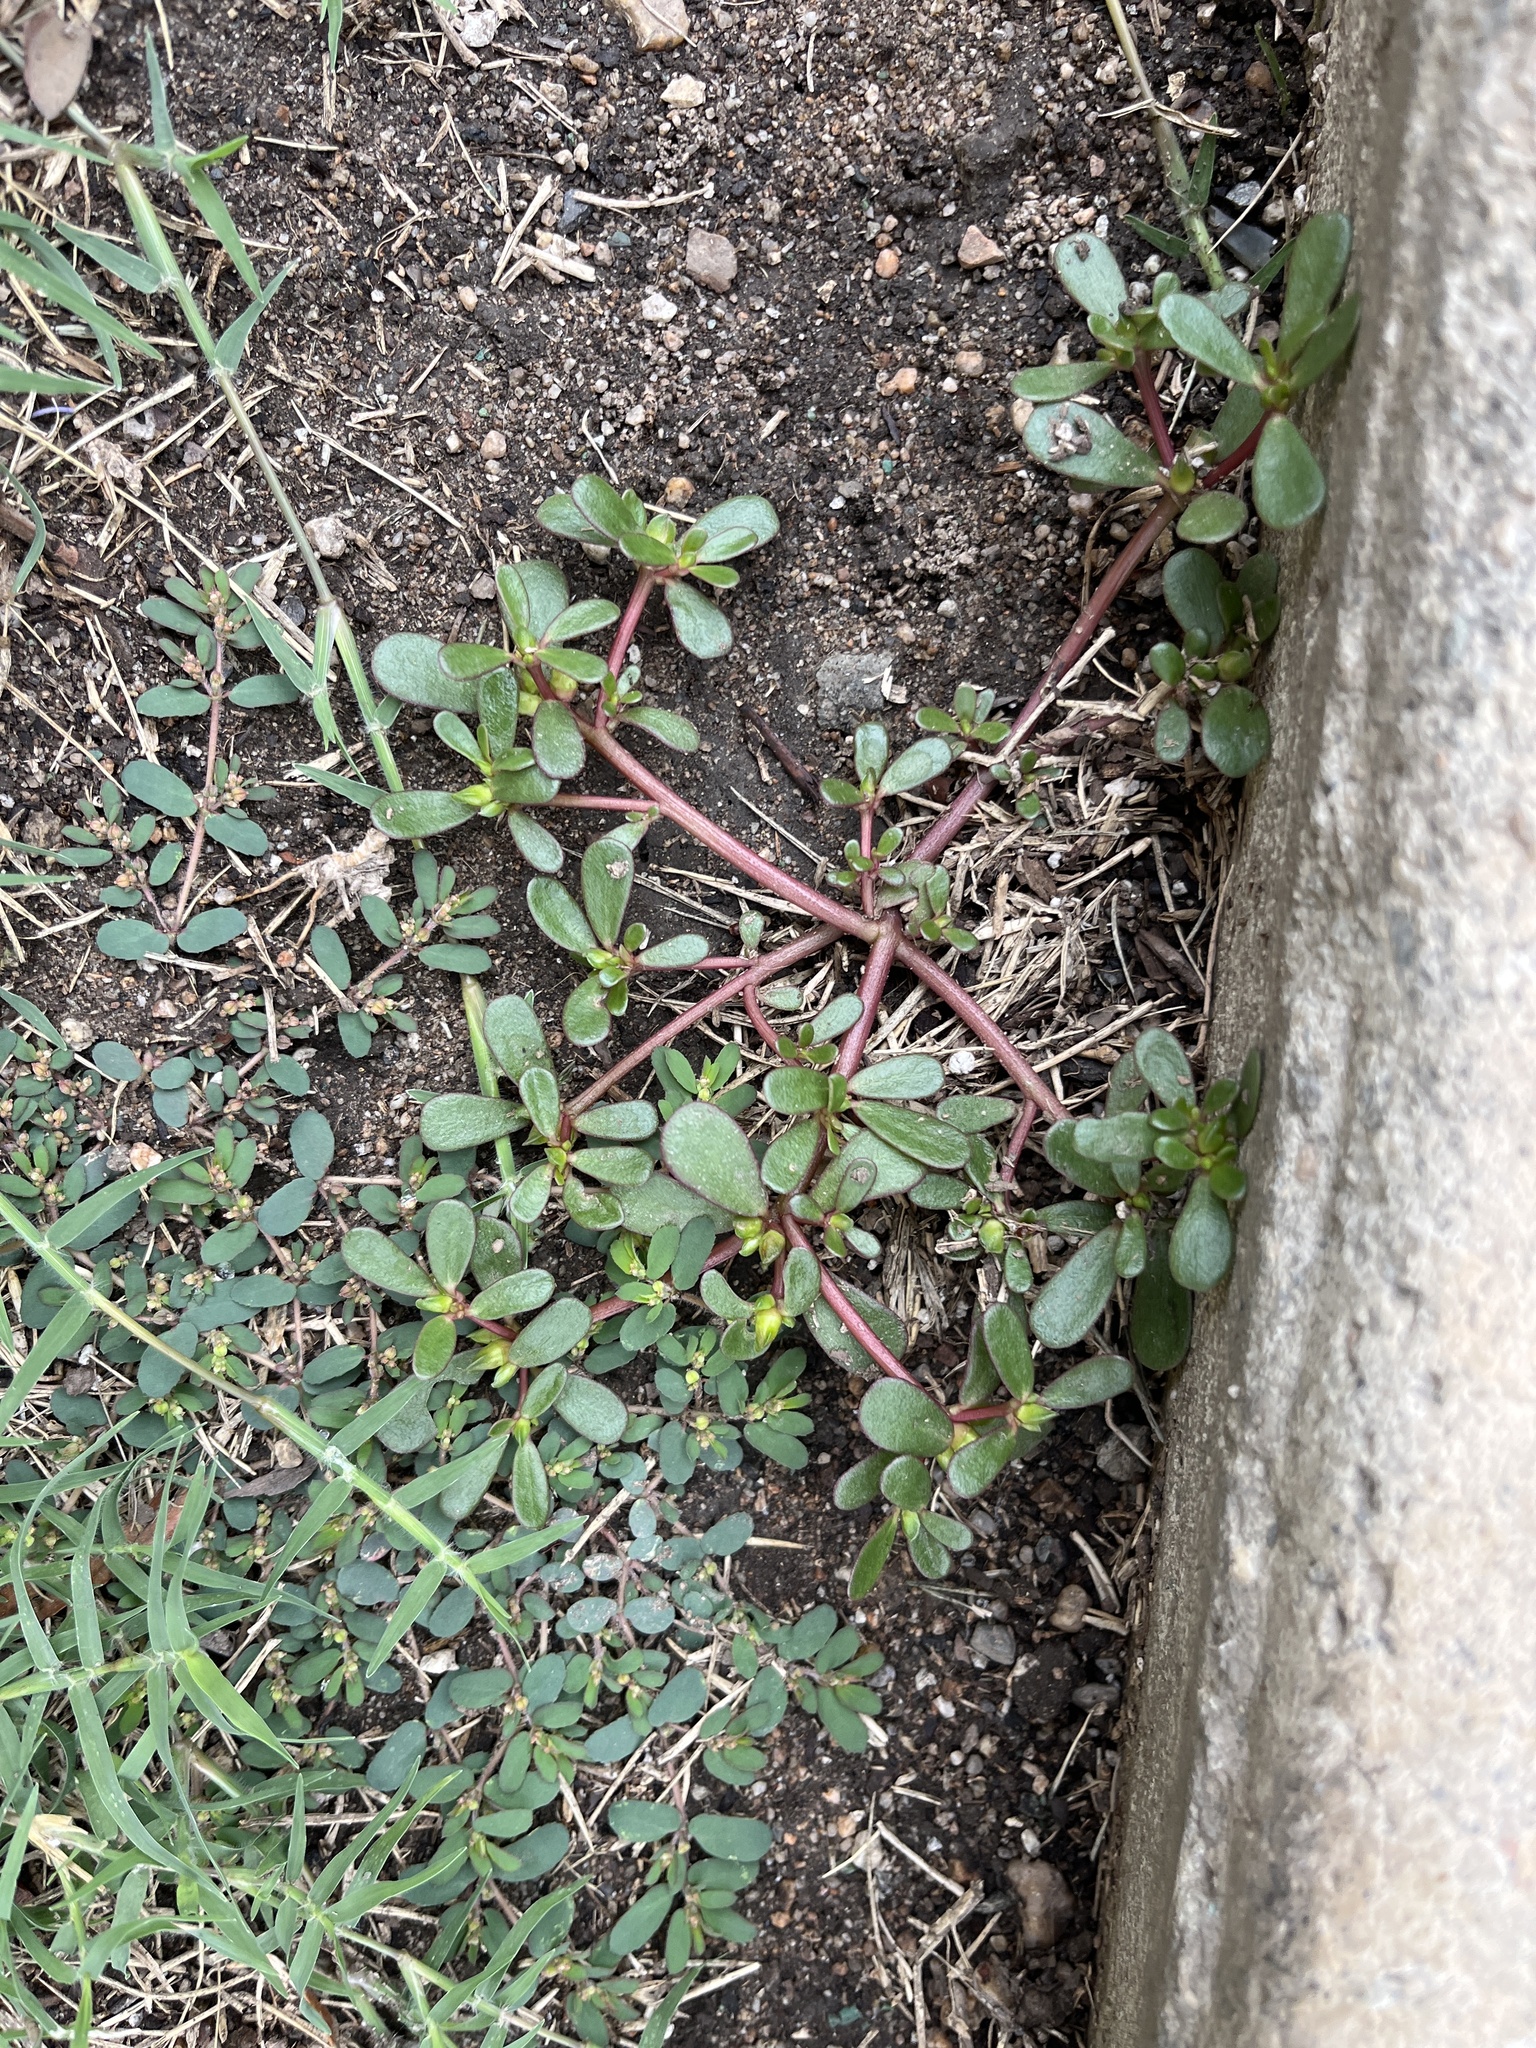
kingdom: Plantae
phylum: Tracheophyta
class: Magnoliopsida
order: Caryophyllales
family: Portulacaceae
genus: Portulaca
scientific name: Portulaca oleracea
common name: Common purslane
